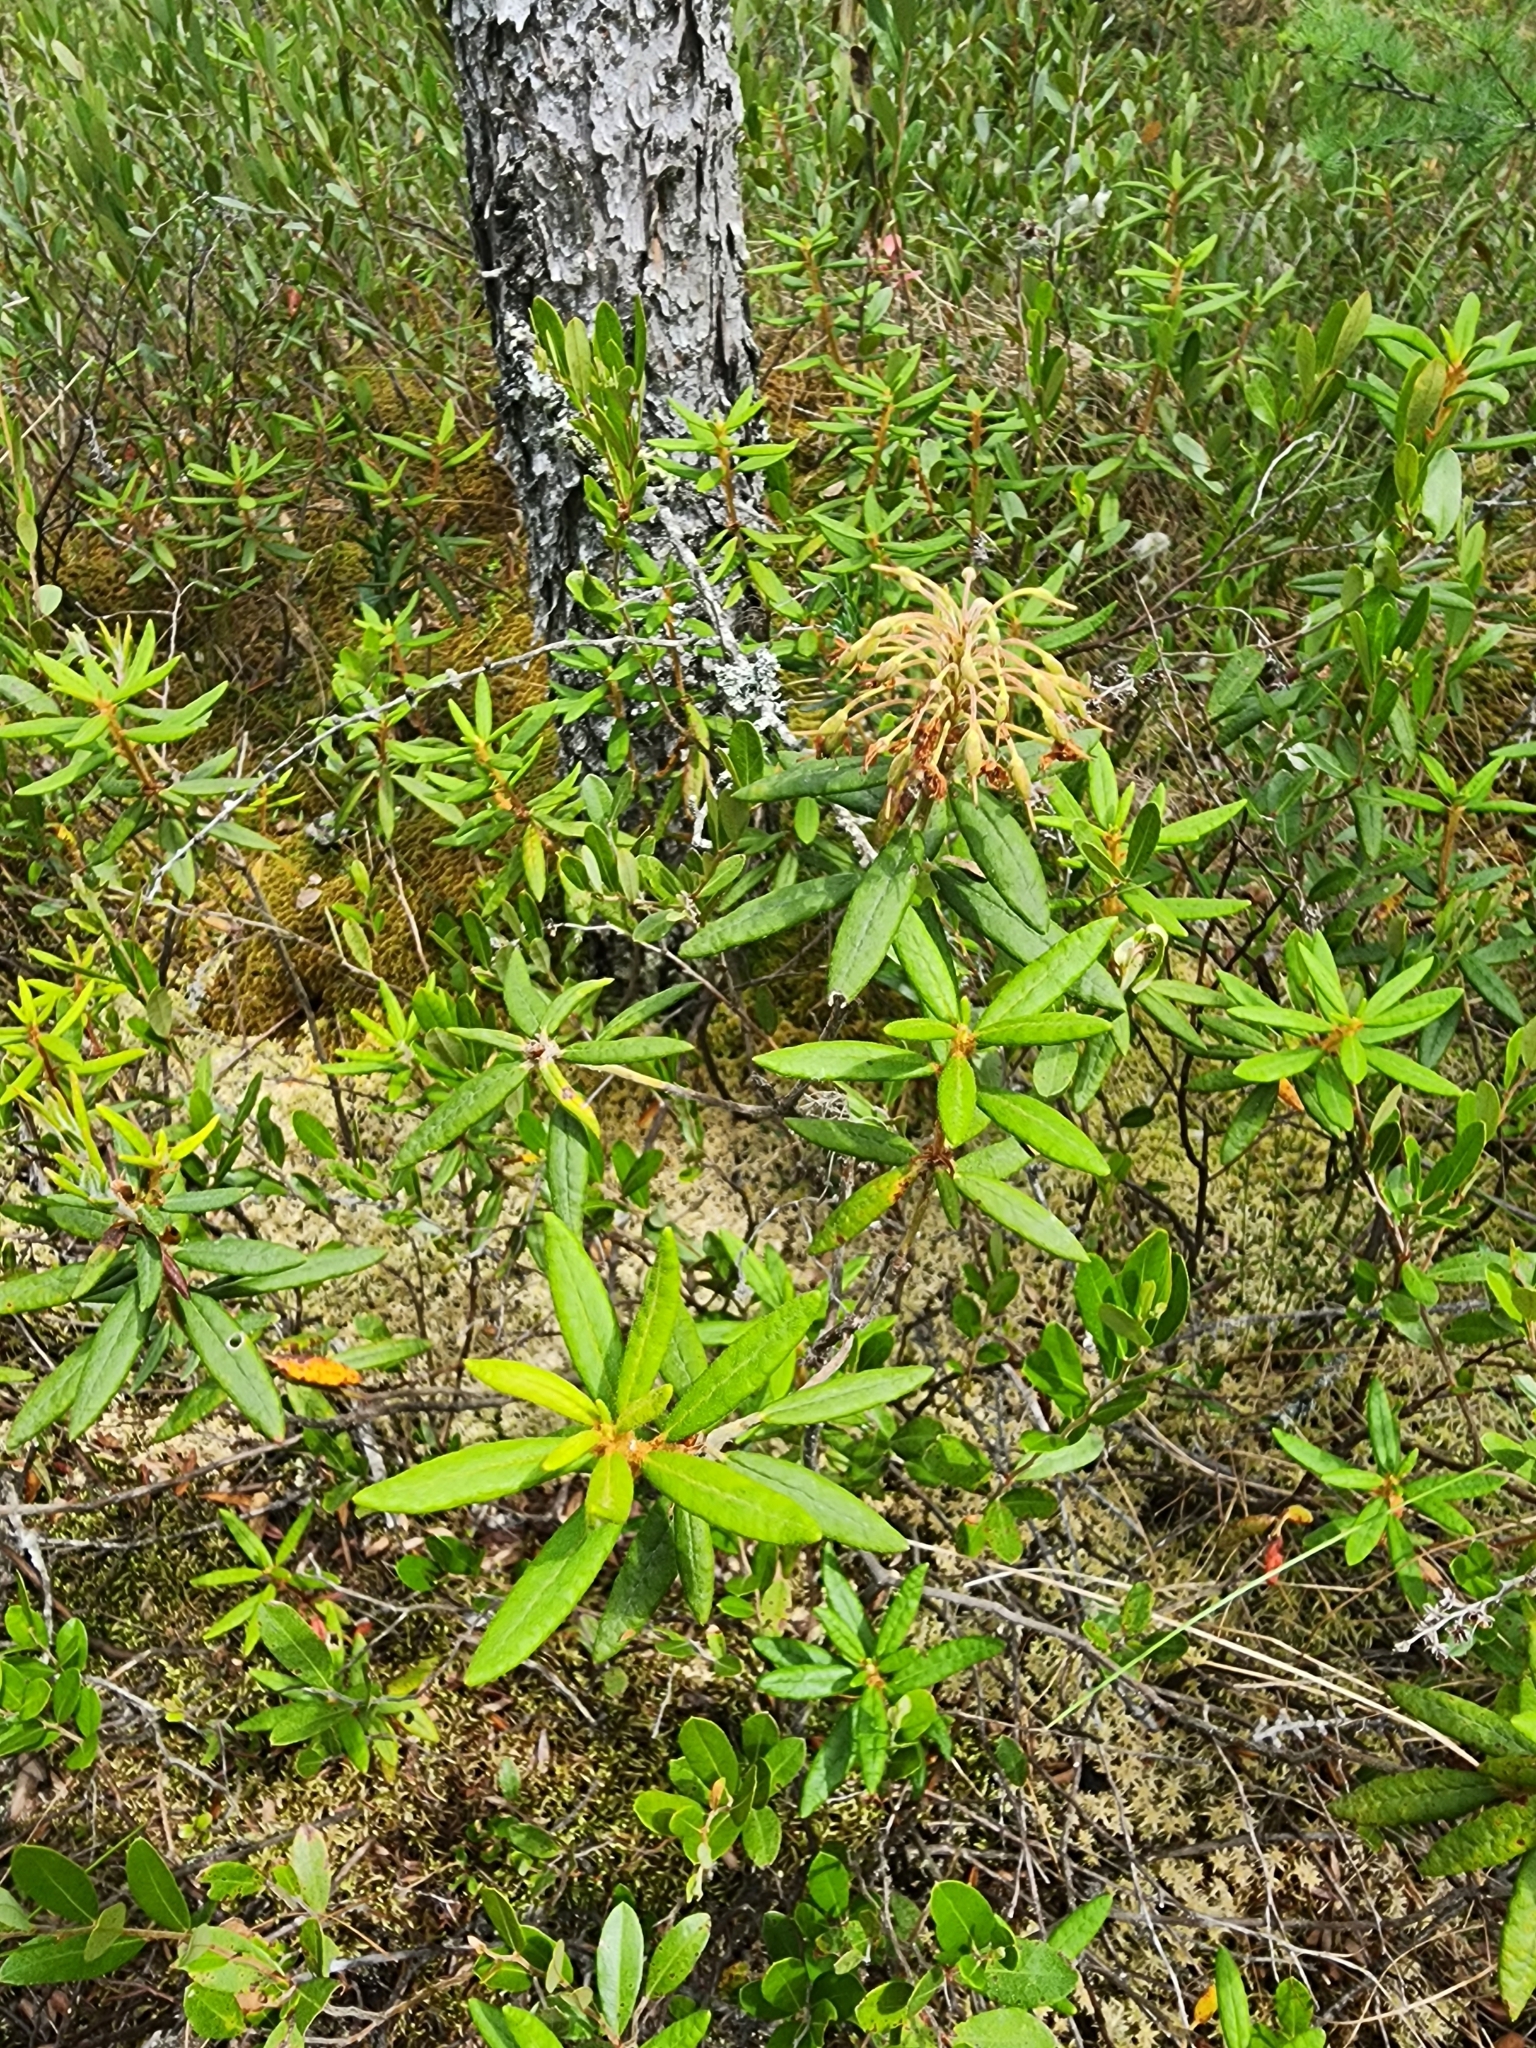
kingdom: Plantae
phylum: Tracheophyta
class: Magnoliopsida
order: Ericales
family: Ericaceae
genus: Rhododendron
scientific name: Rhododendron groenlandicum
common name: Bog labrador tea
